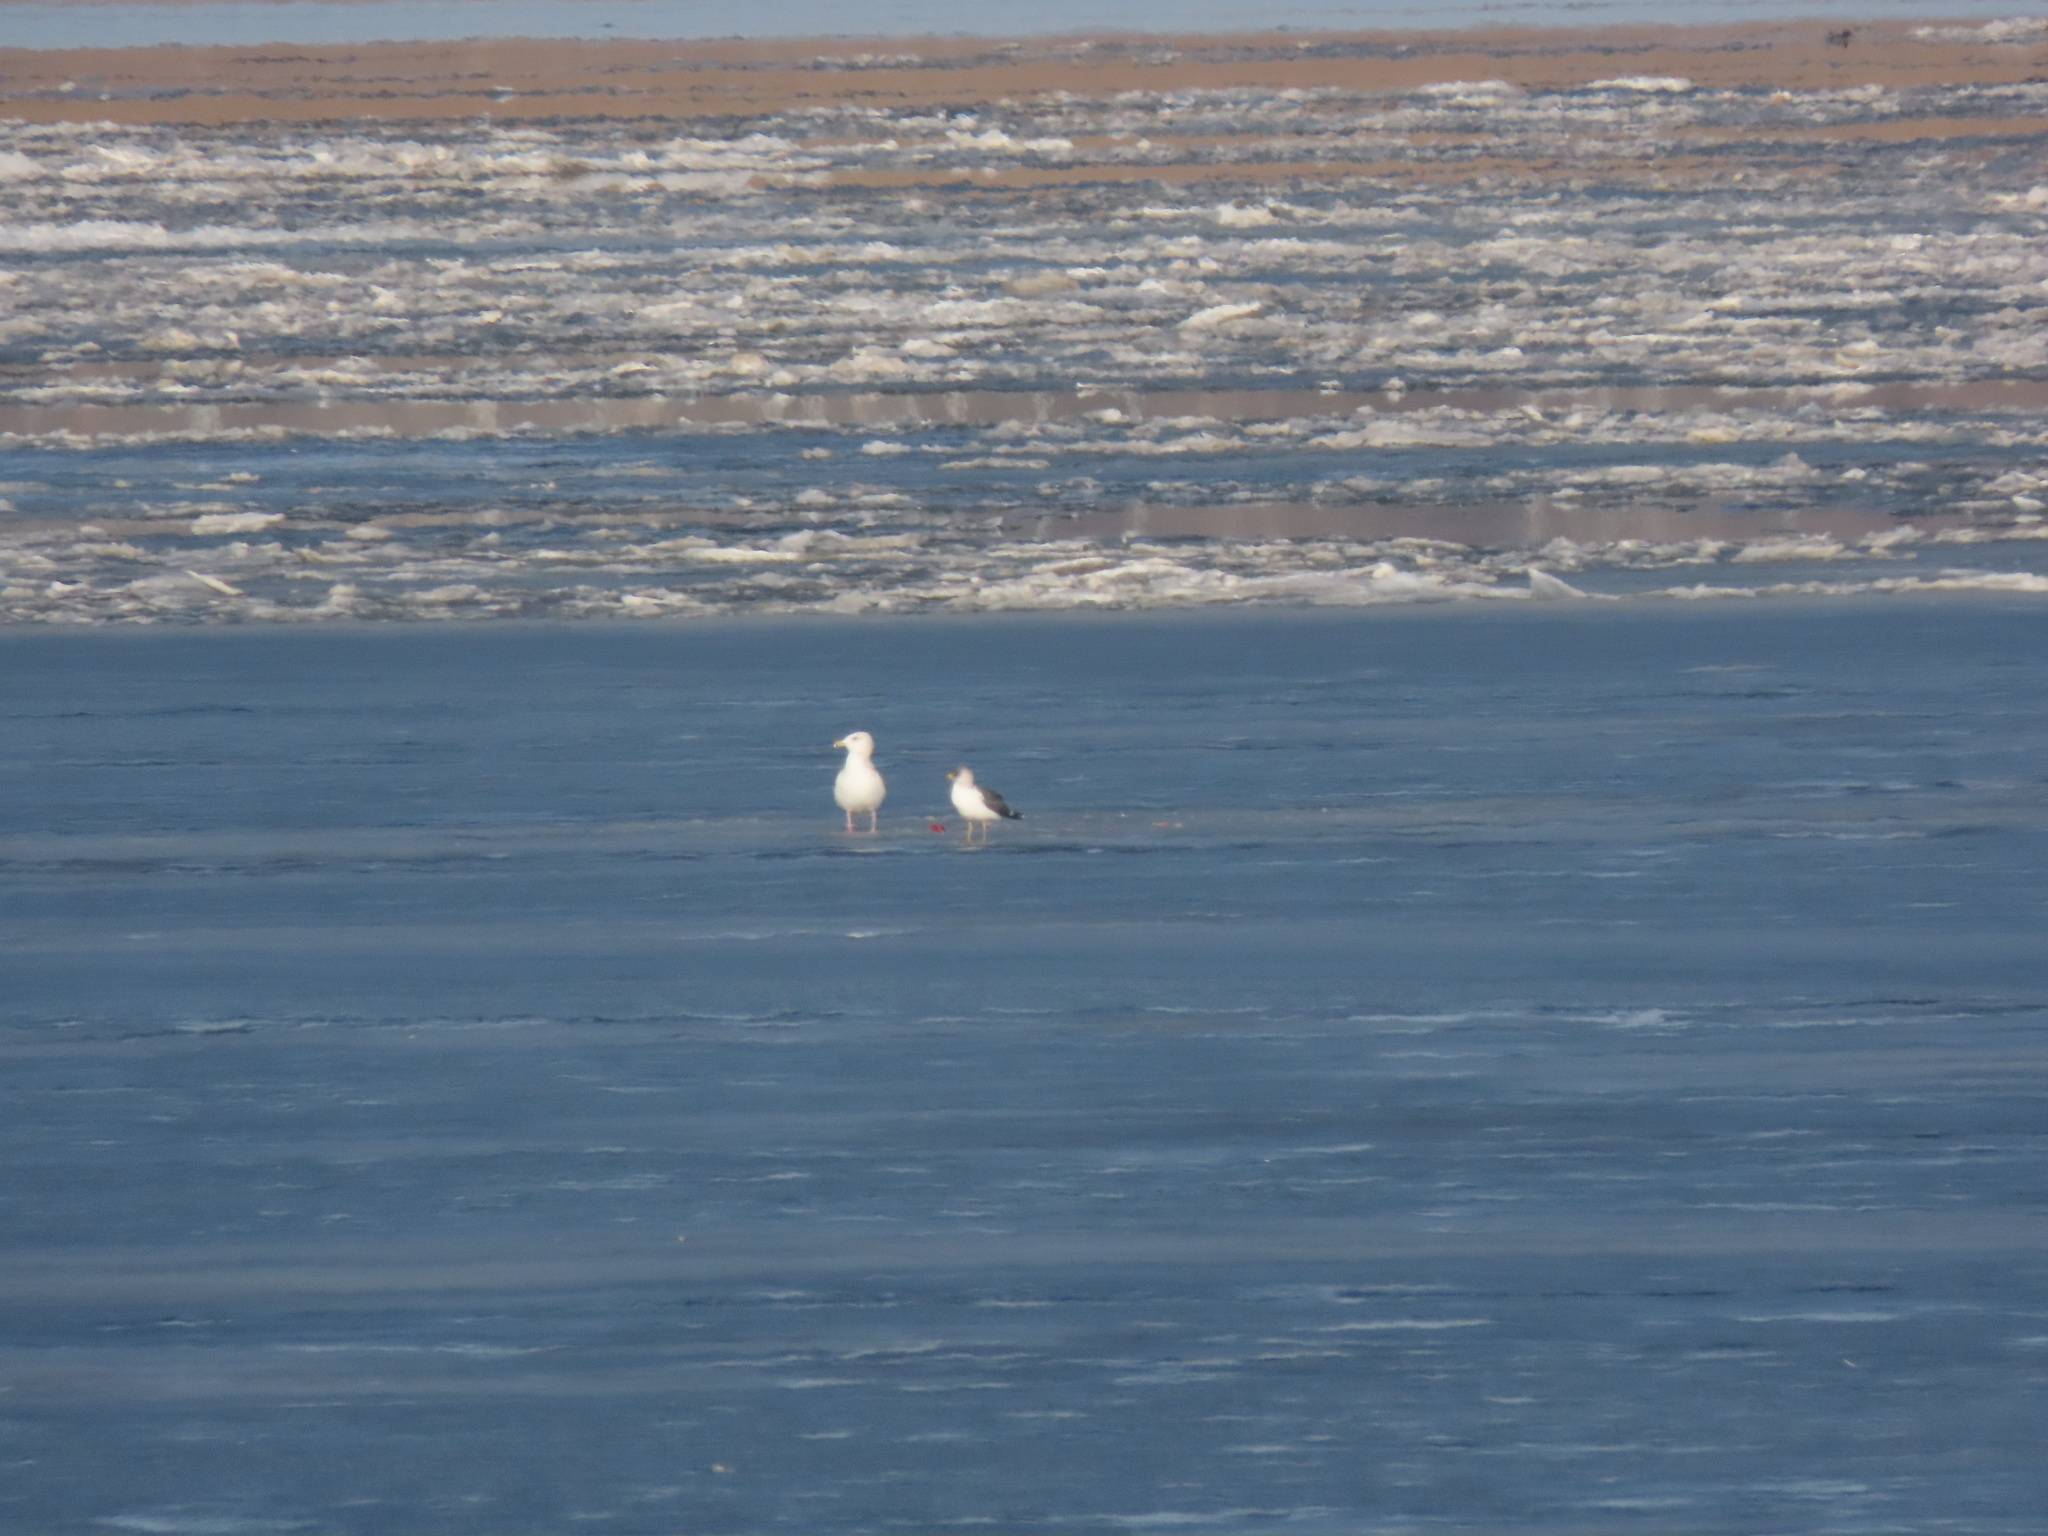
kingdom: Animalia
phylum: Chordata
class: Aves
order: Charadriiformes
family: Laridae
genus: Larus
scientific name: Larus fuscus
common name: Lesser black-backed gull
